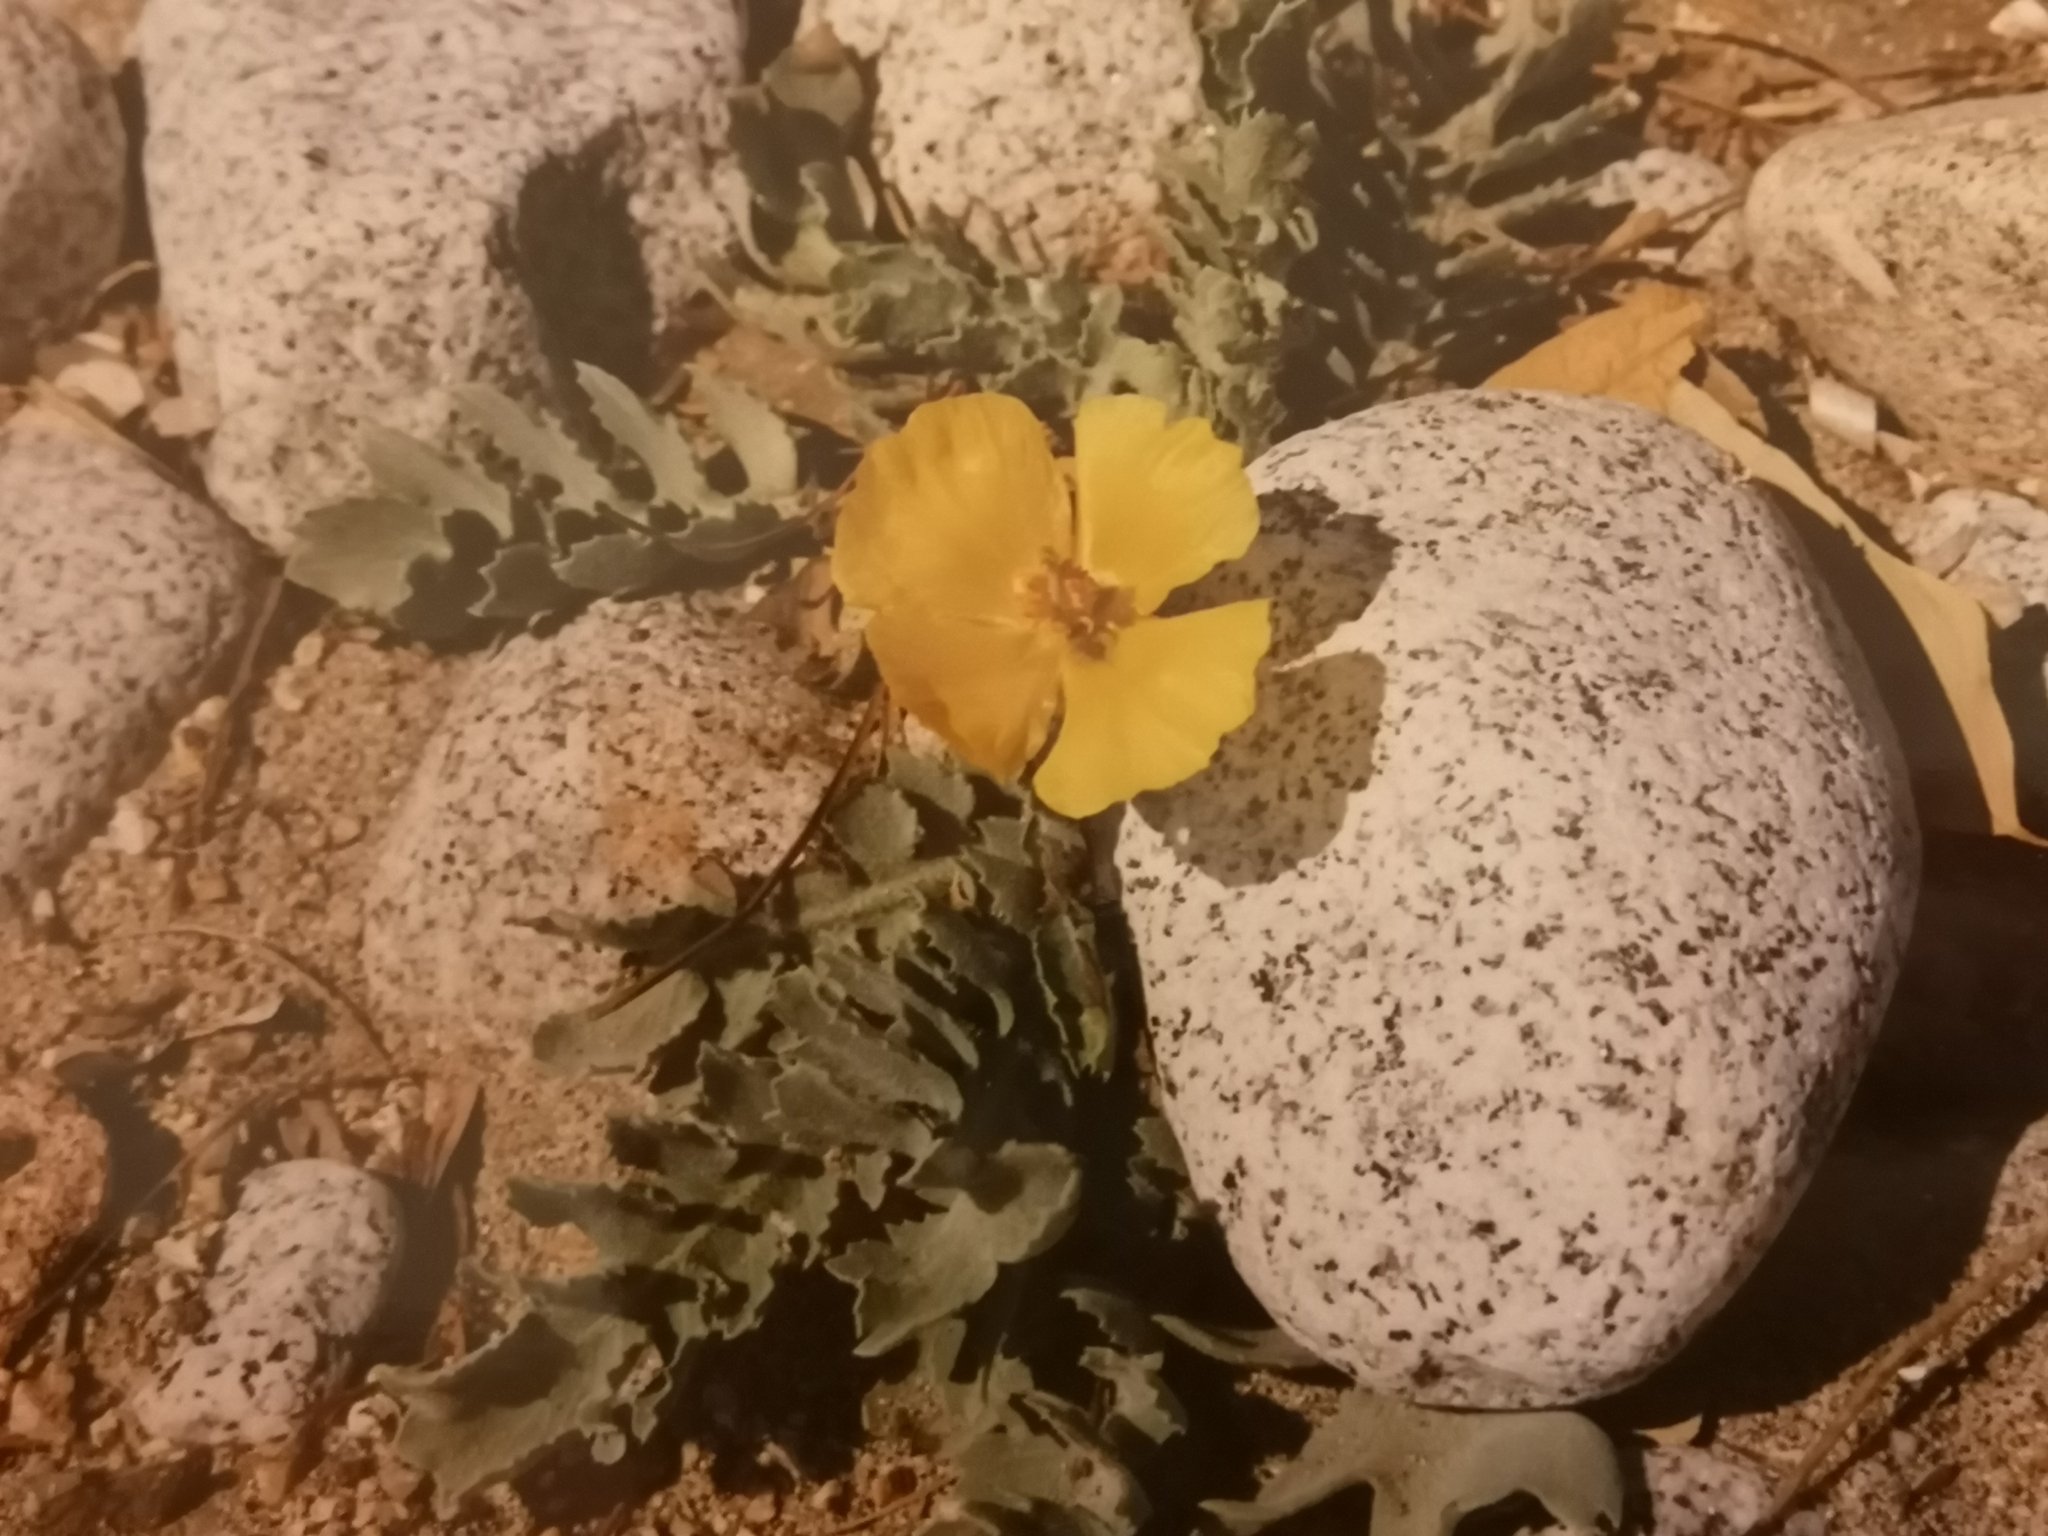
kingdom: Plantae
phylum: Tracheophyta
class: Magnoliopsida
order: Ranunculales
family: Papaveraceae
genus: Glaucium
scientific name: Glaucium flavum
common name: Yellow horned-poppy
